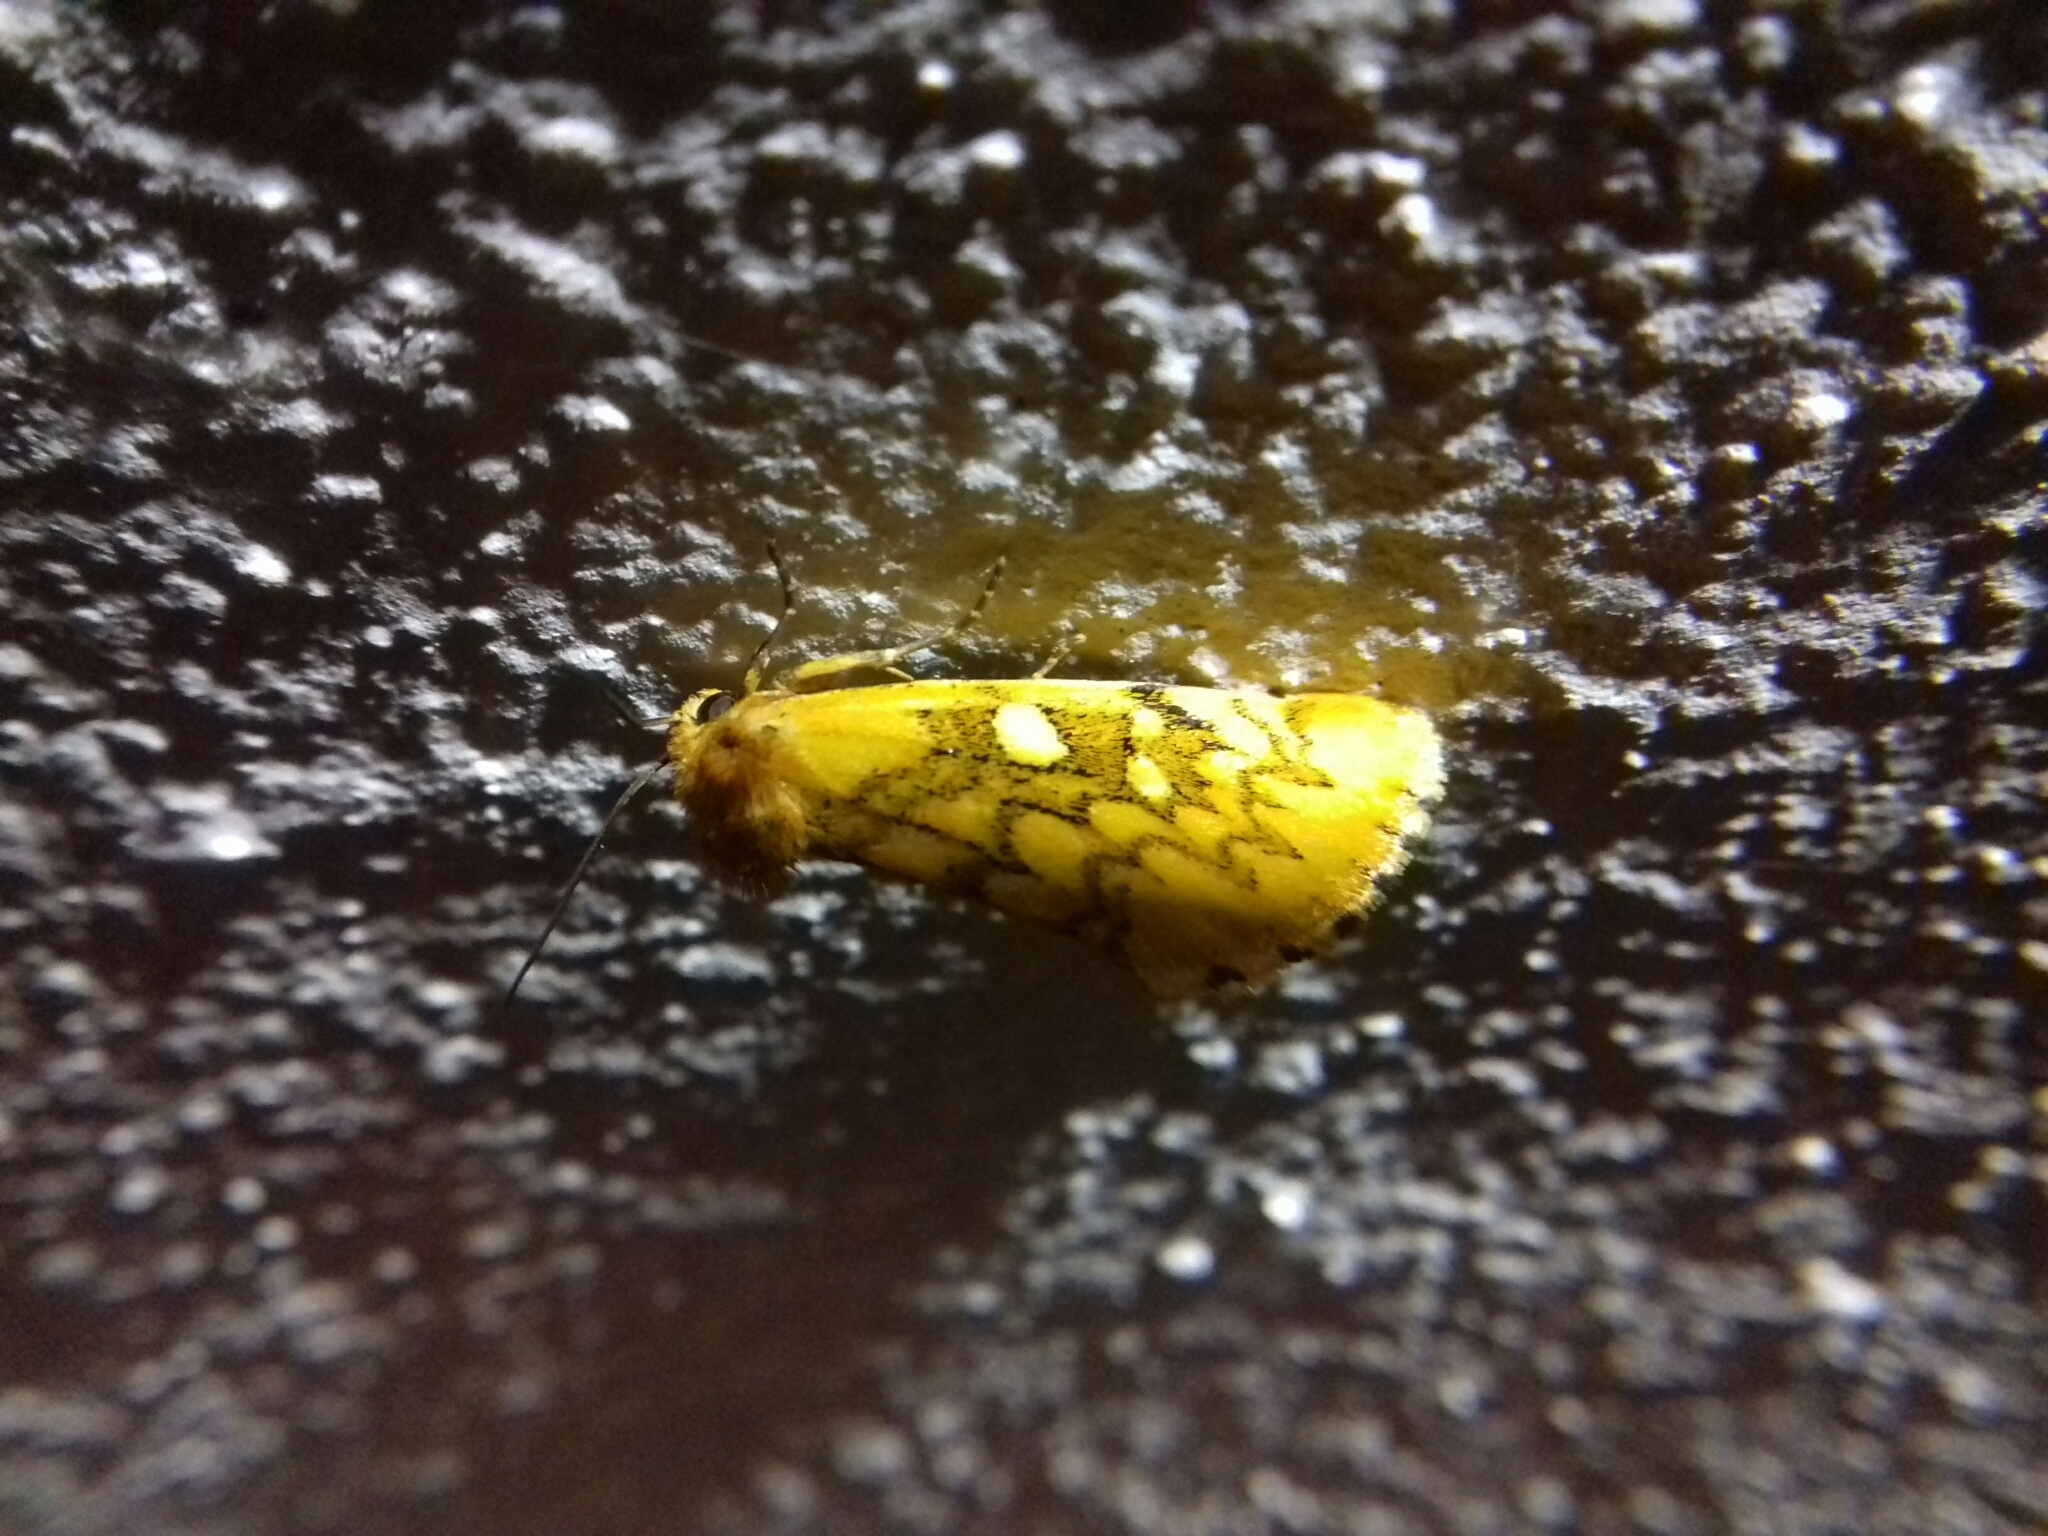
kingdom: Animalia
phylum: Arthropoda
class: Insecta
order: Lepidoptera
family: Noctuidae
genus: Chrysoecia
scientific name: Chrysoecia
